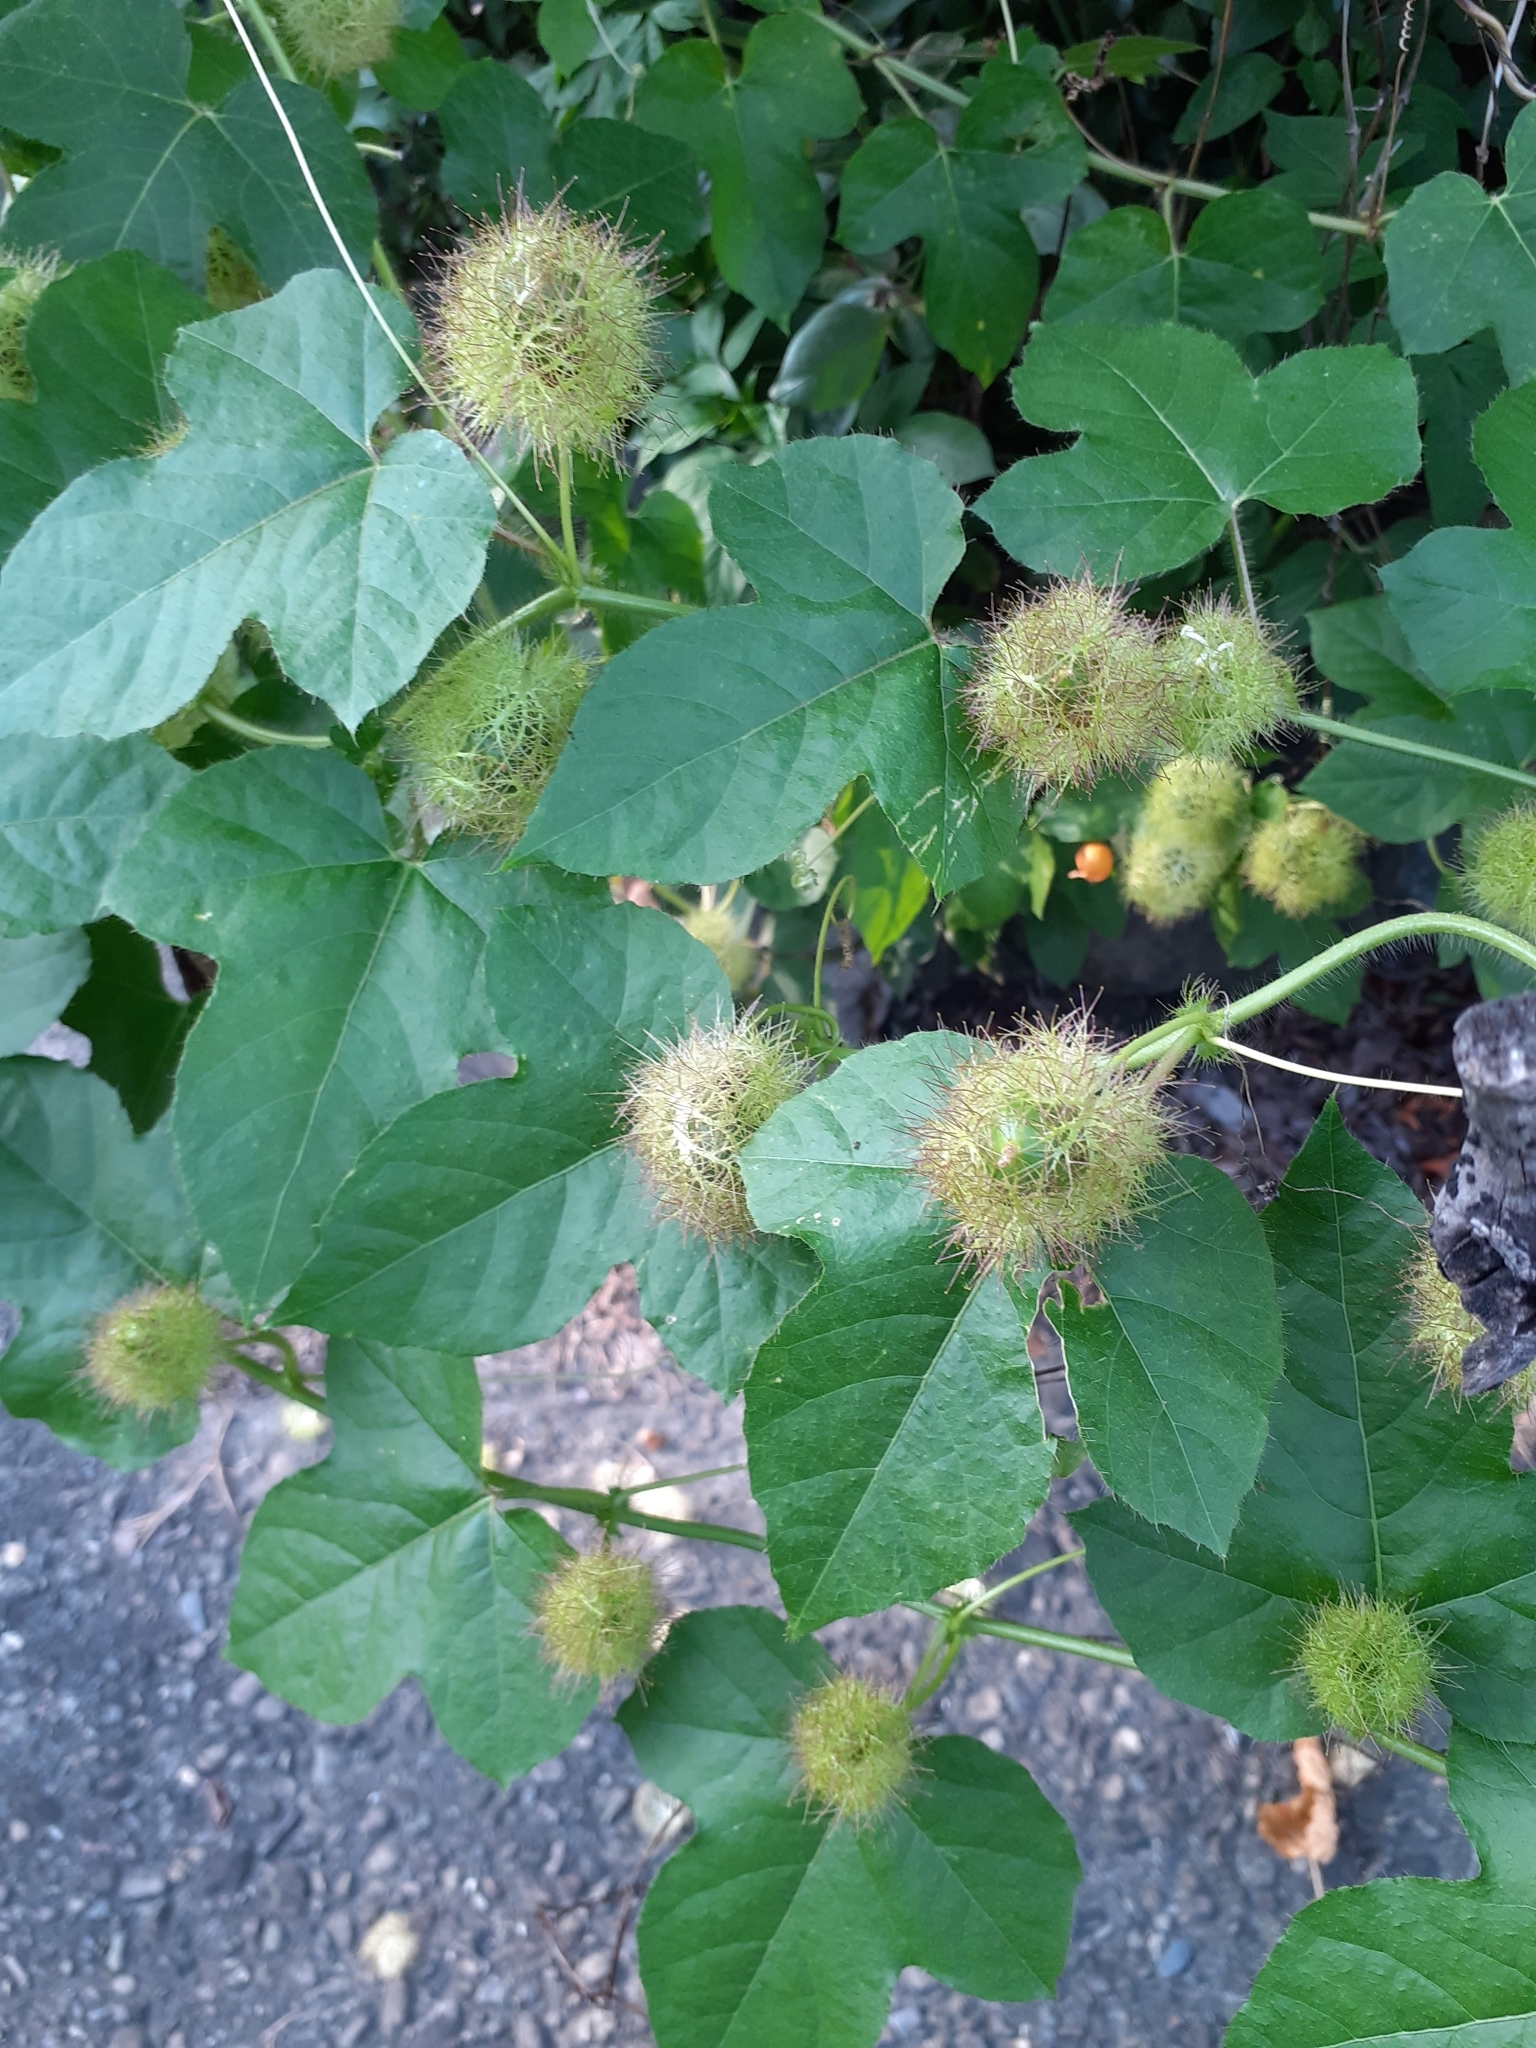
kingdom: Plantae
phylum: Tracheophyta
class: Magnoliopsida
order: Malpighiales
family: Passifloraceae
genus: Passiflora
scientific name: Passiflora vesicaria
